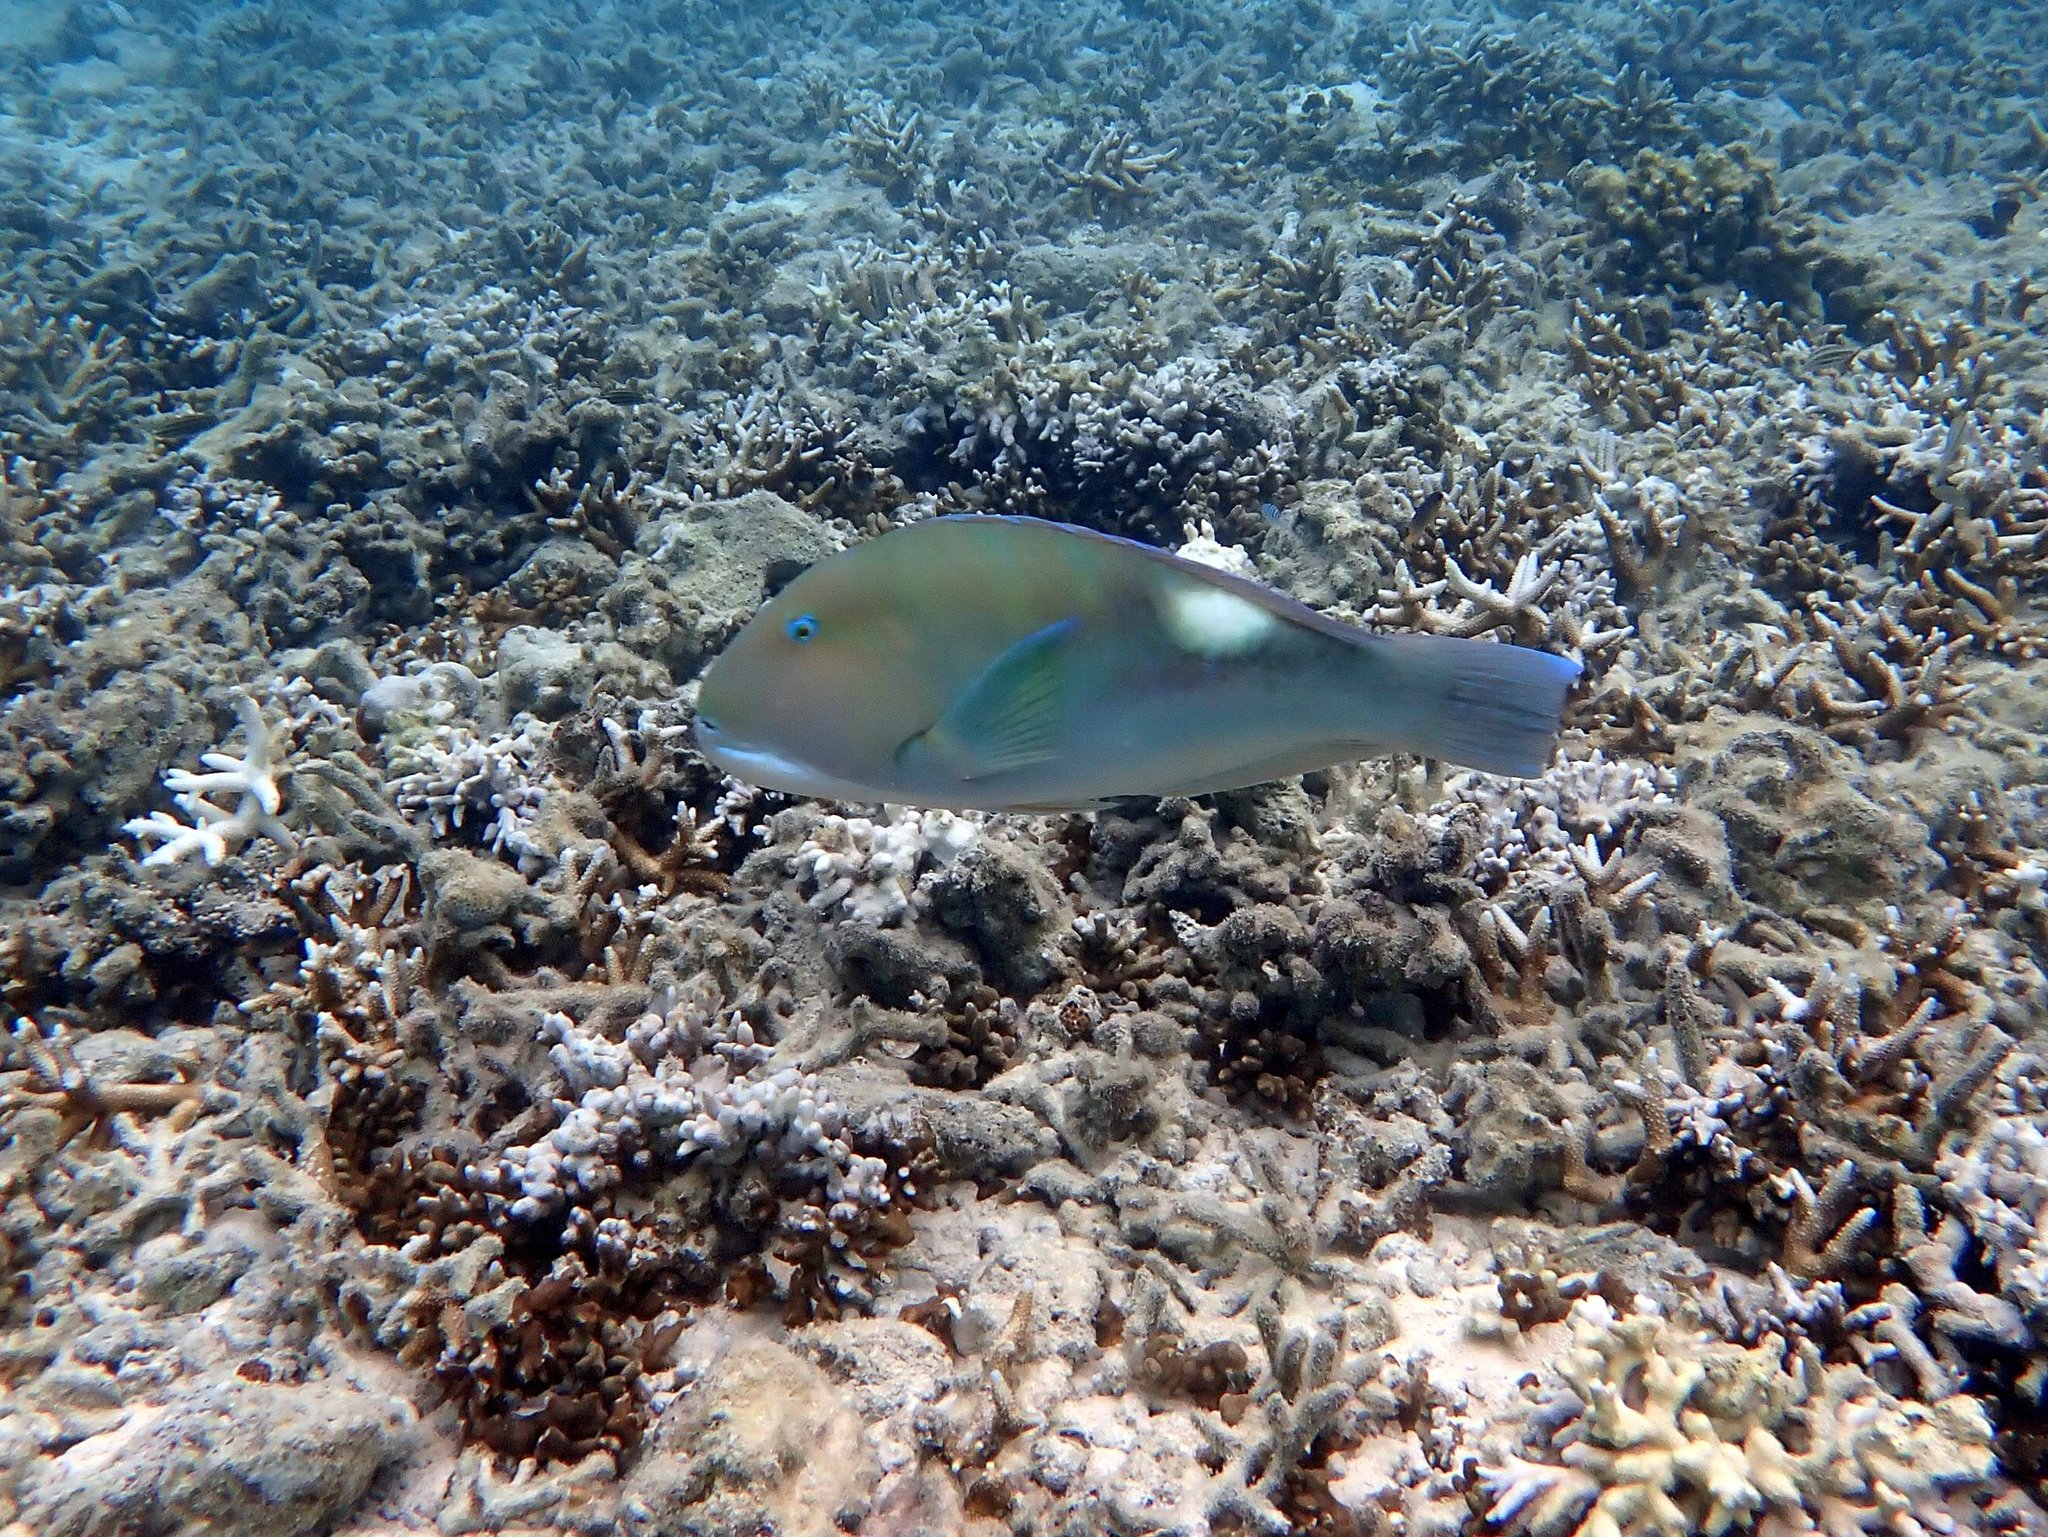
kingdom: Animalia
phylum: Chordata
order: Perciformes
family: Labridae
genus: Choerodon
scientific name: Choerodon cyanodus
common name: Blue tuskfish
